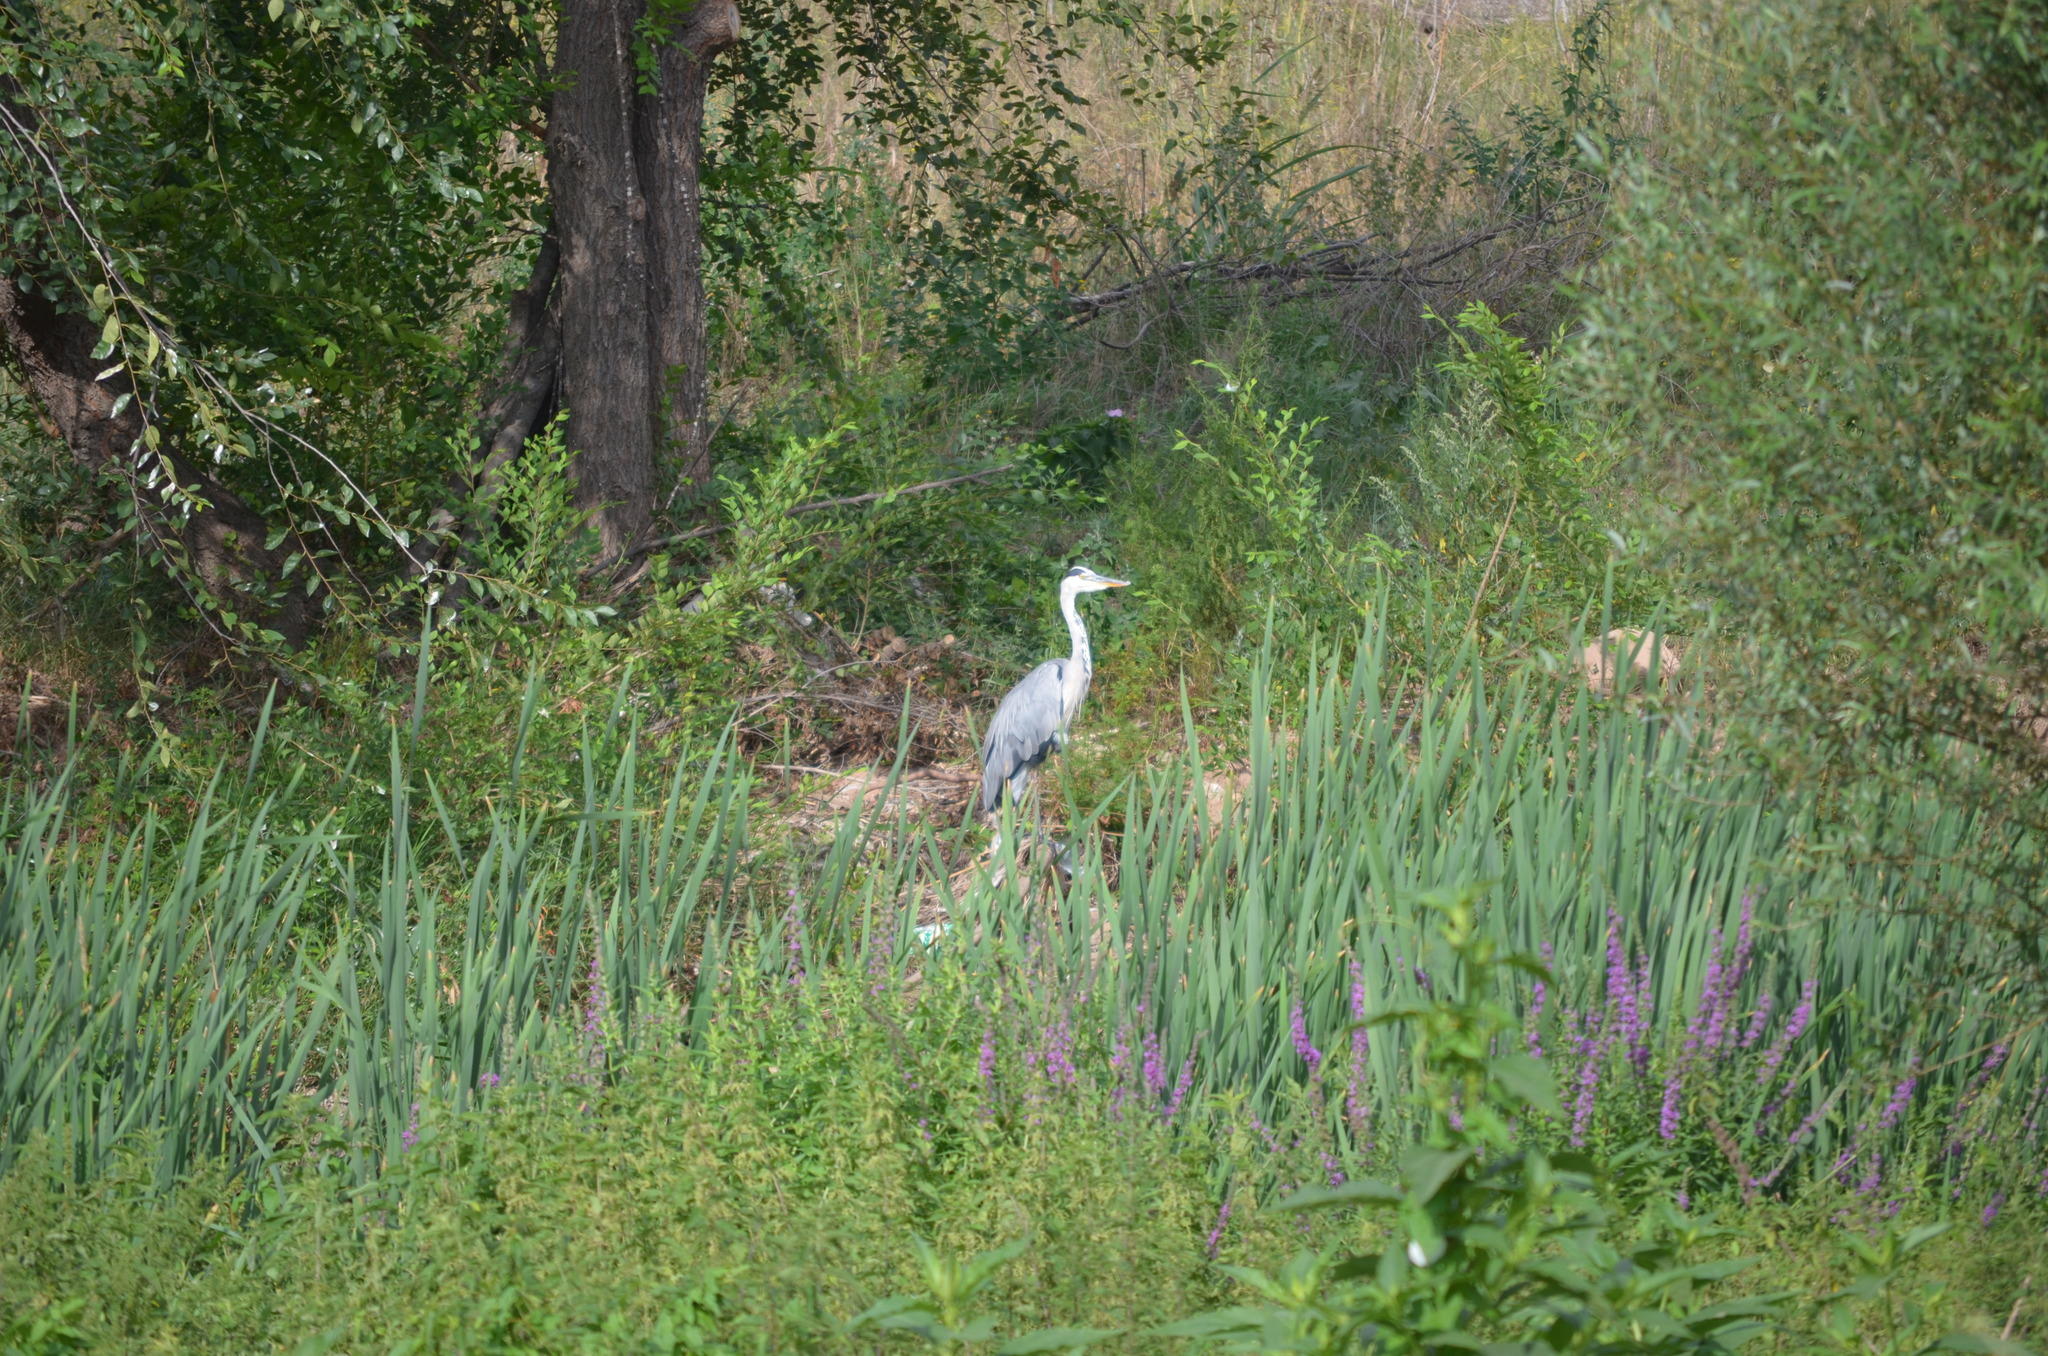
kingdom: Animalia
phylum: Chordata
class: Aves
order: Pelecaniformes
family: Ardeidae
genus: Ardea
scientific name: Ardea cinerea
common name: Grey heron
